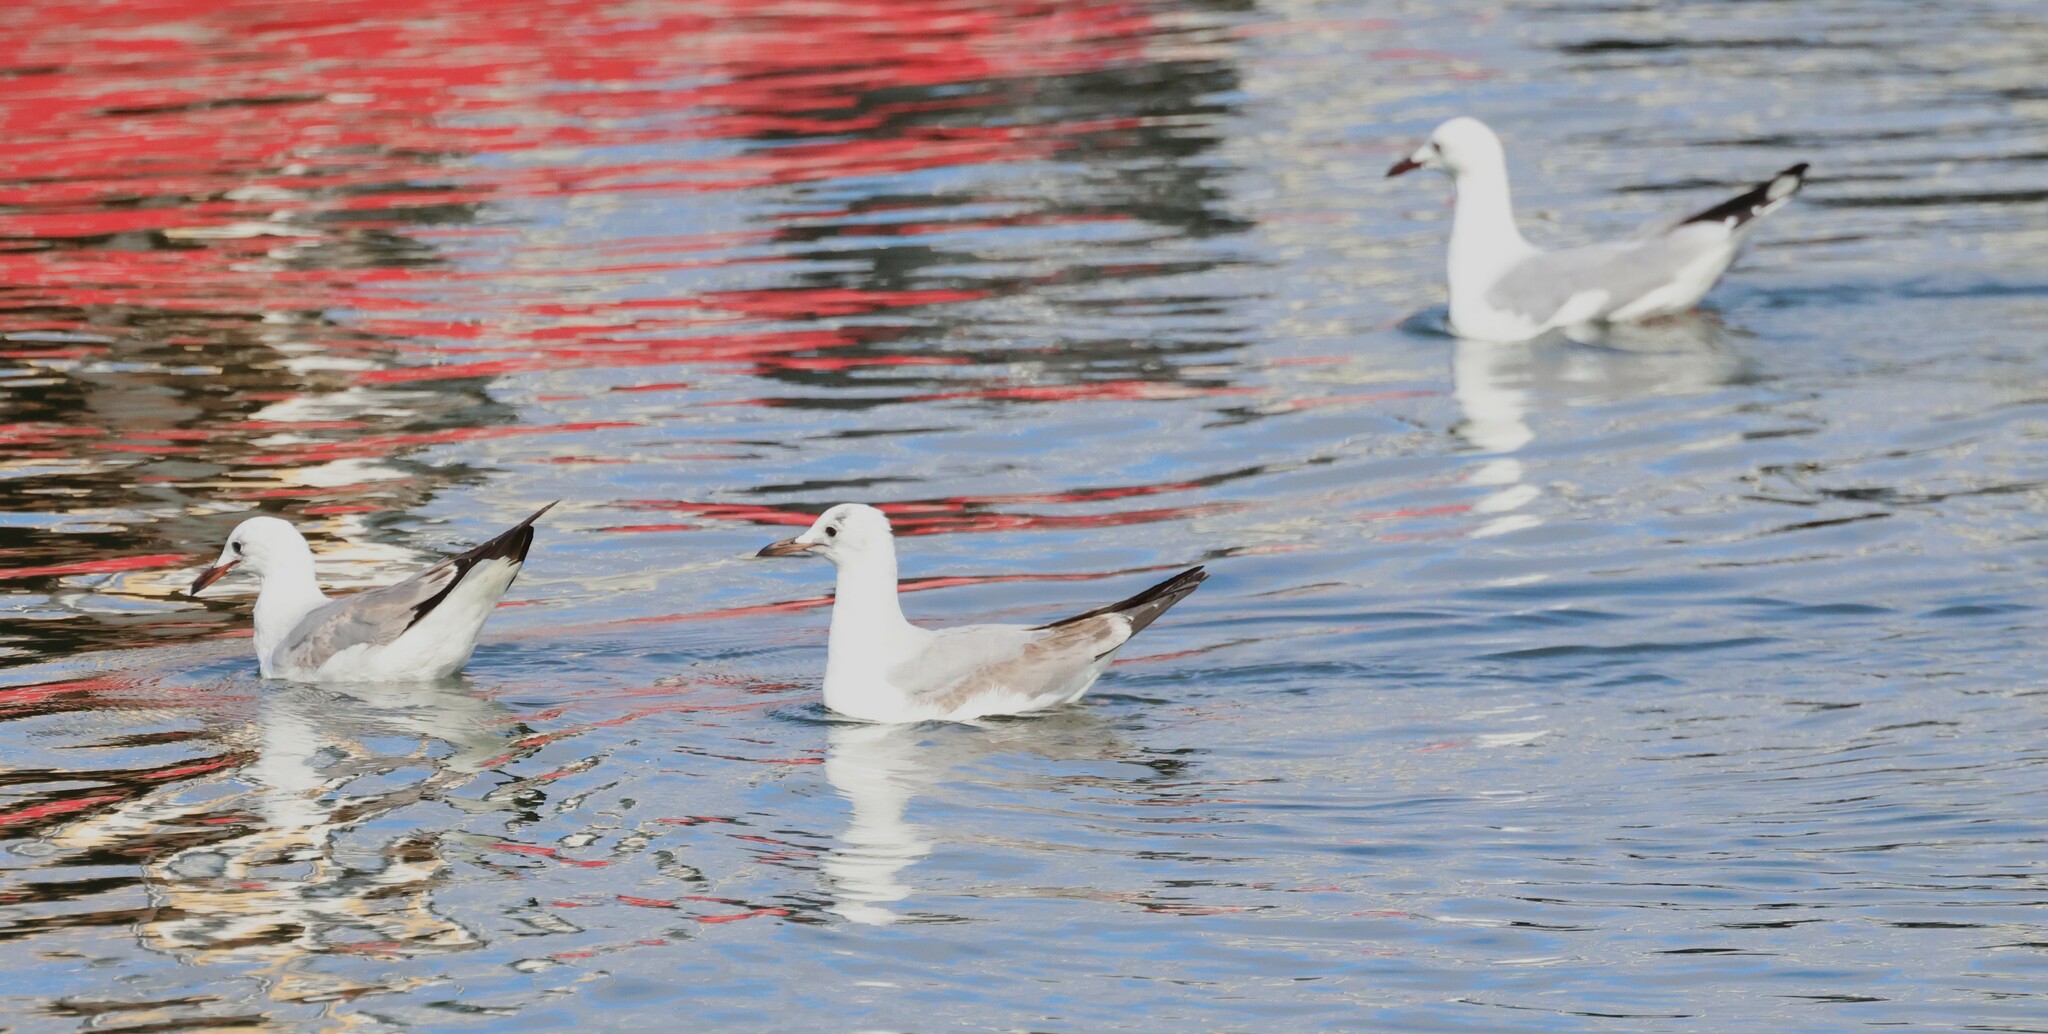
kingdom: Animalia
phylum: Chordata
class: Aves
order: Charadriiformes
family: Laridae
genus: Chroicocephalus
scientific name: Chroicocephalus hartlaubii
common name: Hartlaub's gull
